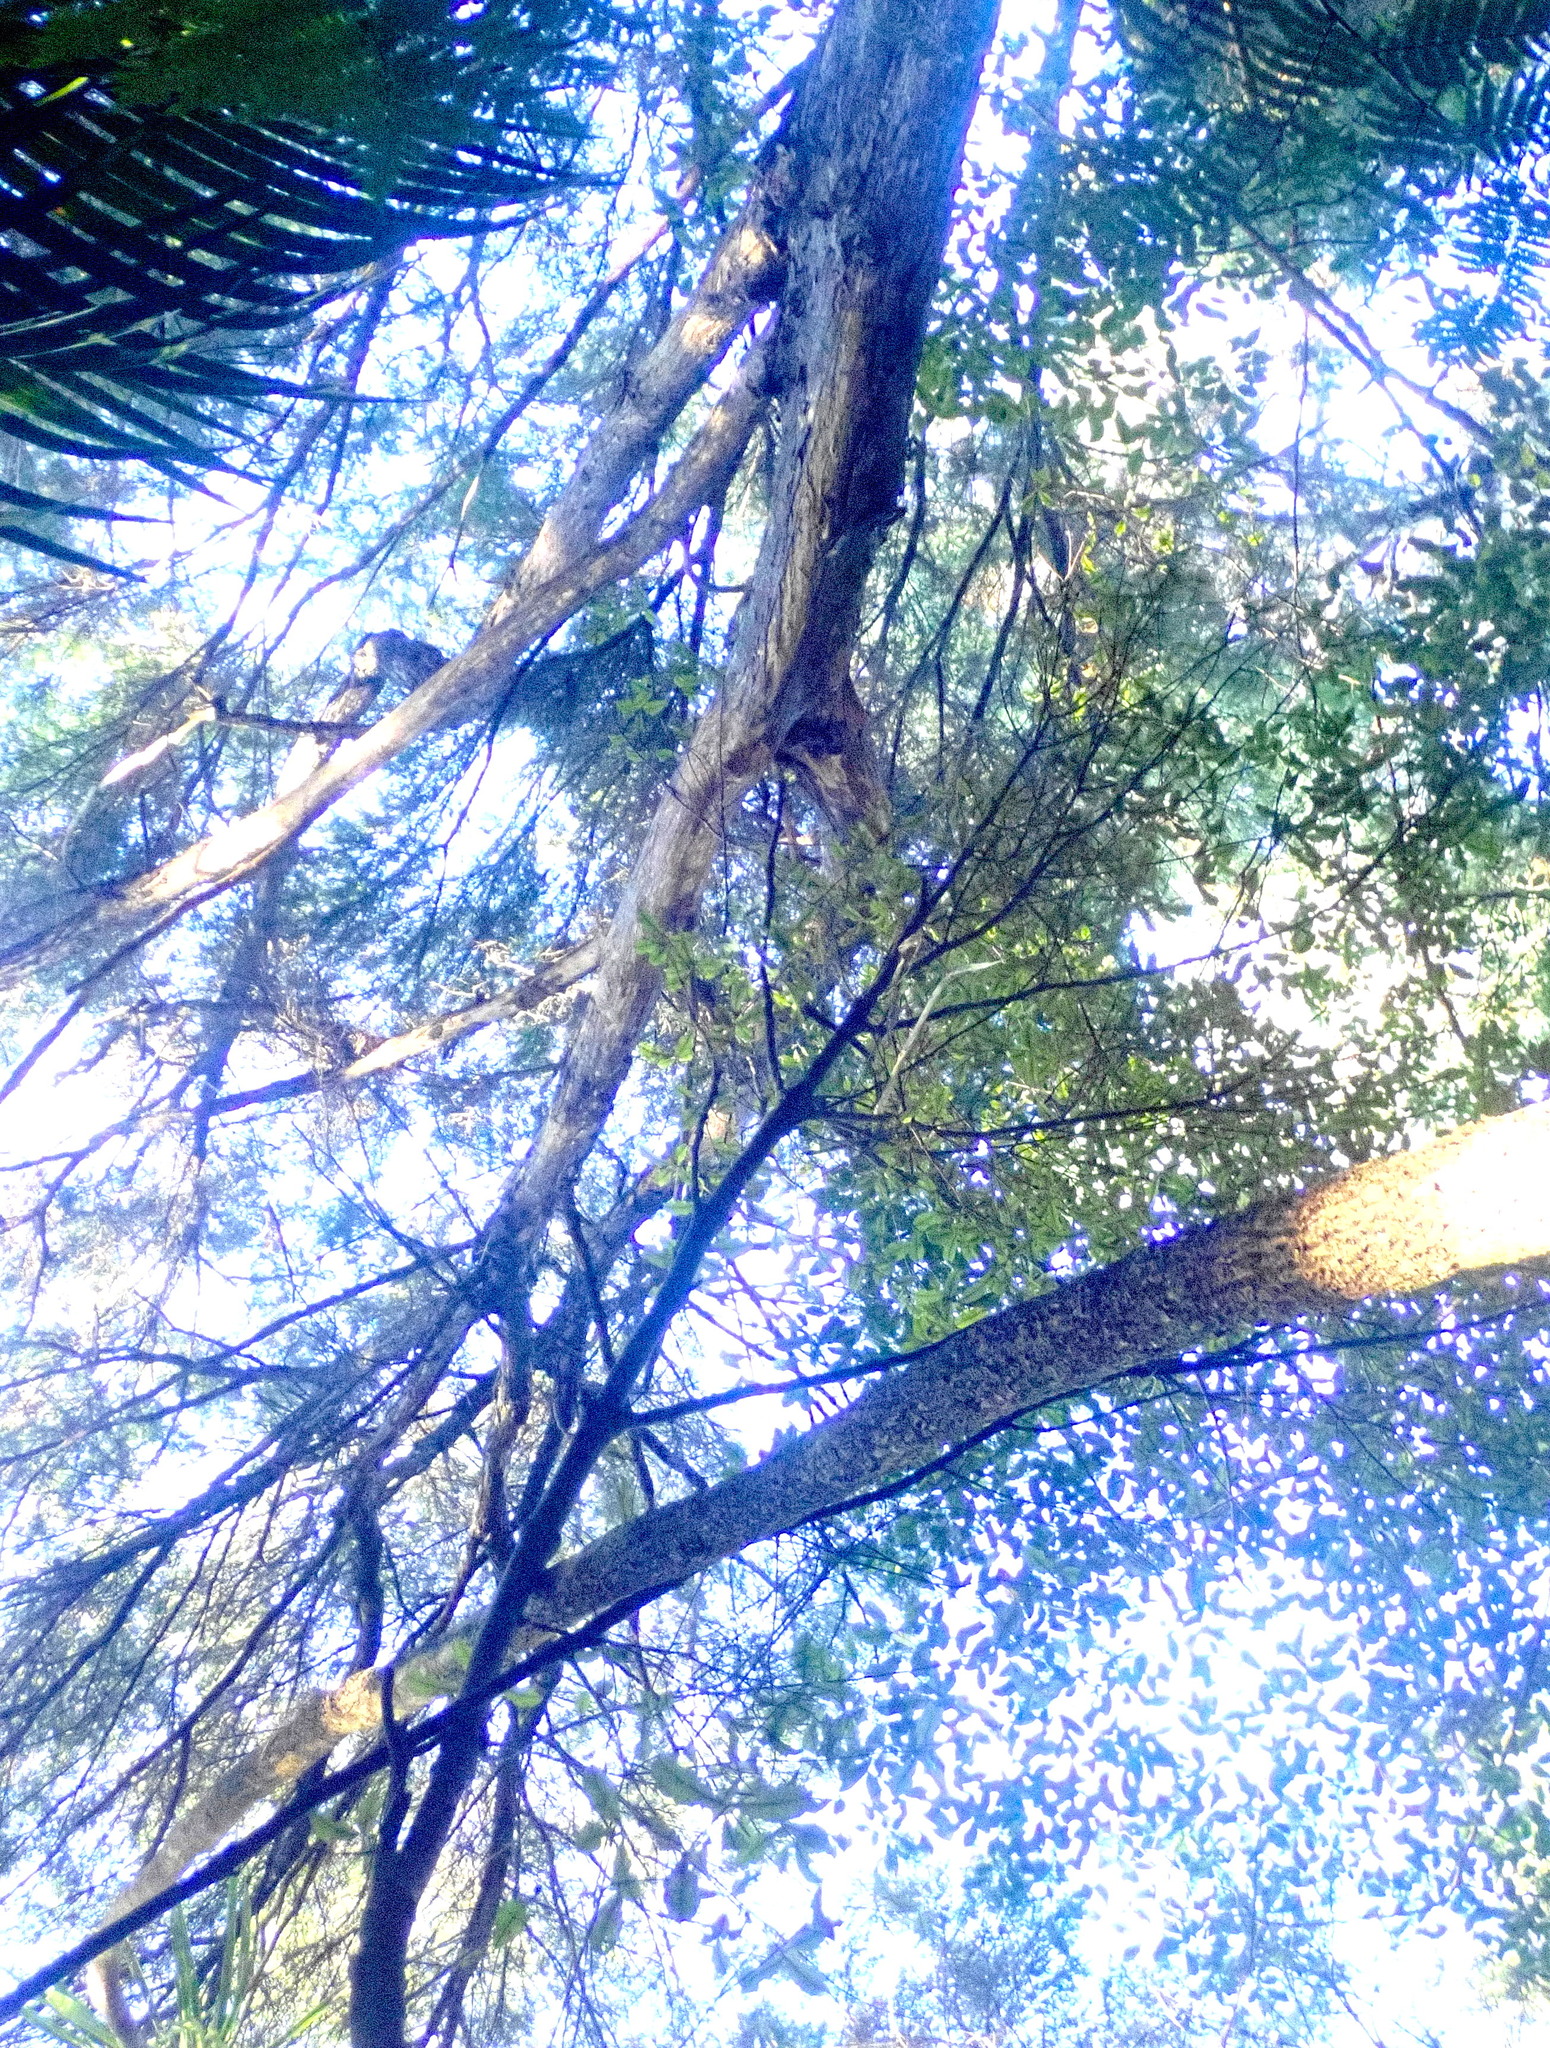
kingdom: Plantae
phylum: Tracheophyta
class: Magnoliopsida
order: Apiales
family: Pittosporaceae
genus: Pittosporum
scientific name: Pittosporum tenuifolium
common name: Kohuhu
